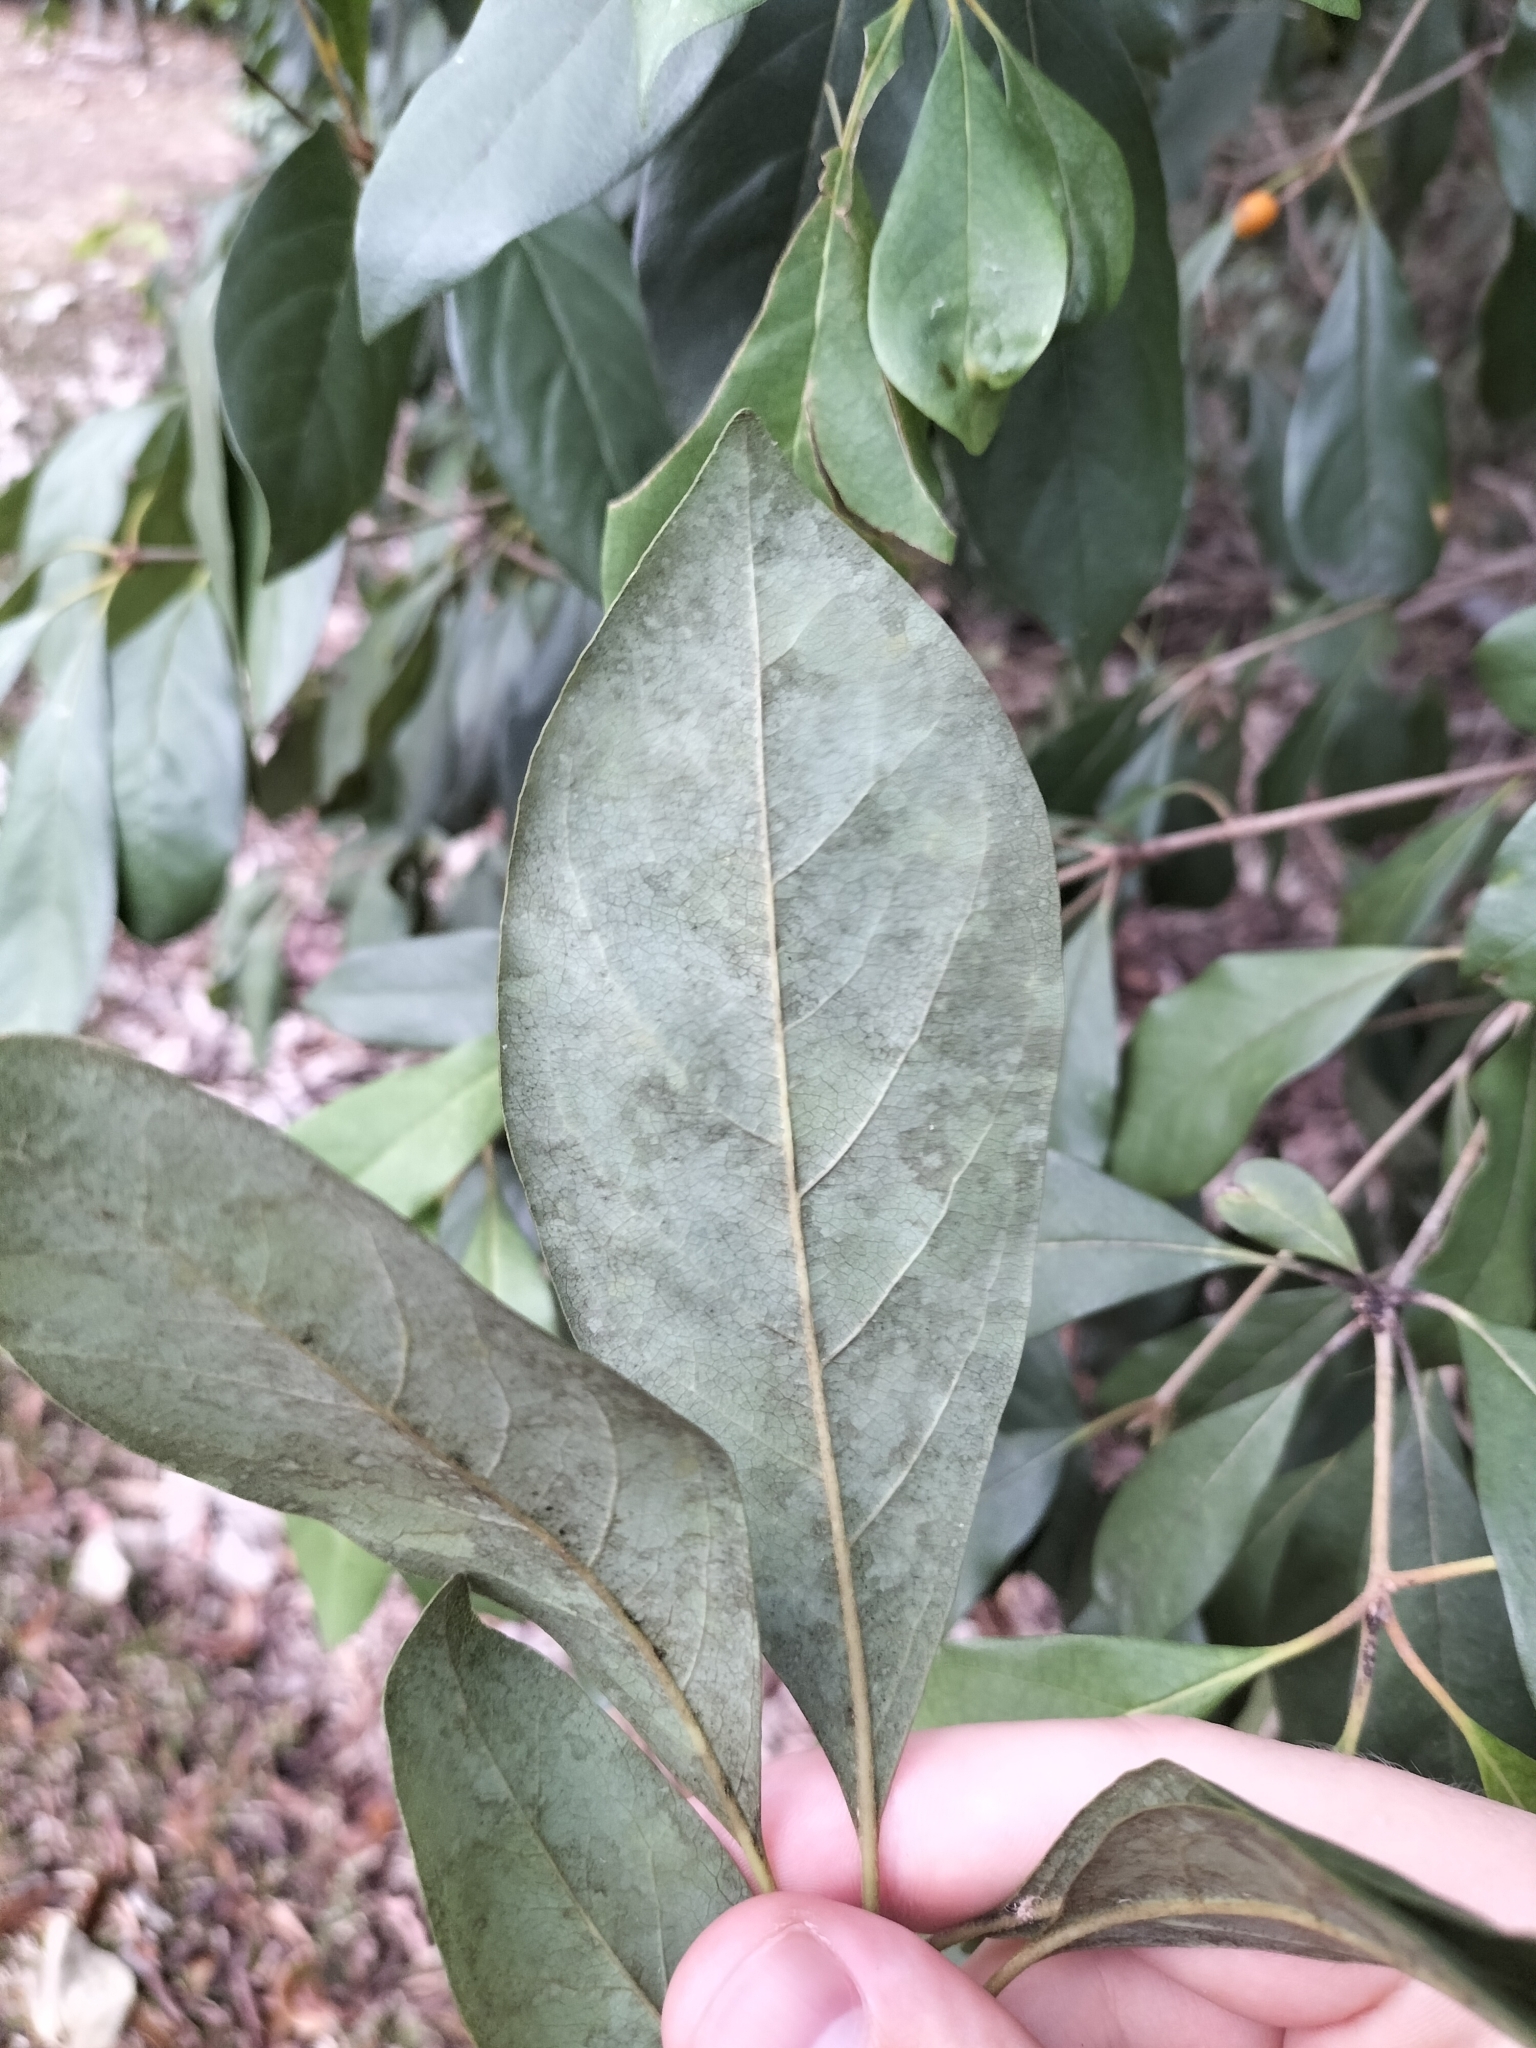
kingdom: Plantae
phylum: Tracheophyta
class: Magnoliopsida
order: Apiales
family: Pittosporaceae
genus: Pittosporum
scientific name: Pittosporum tinifolium
